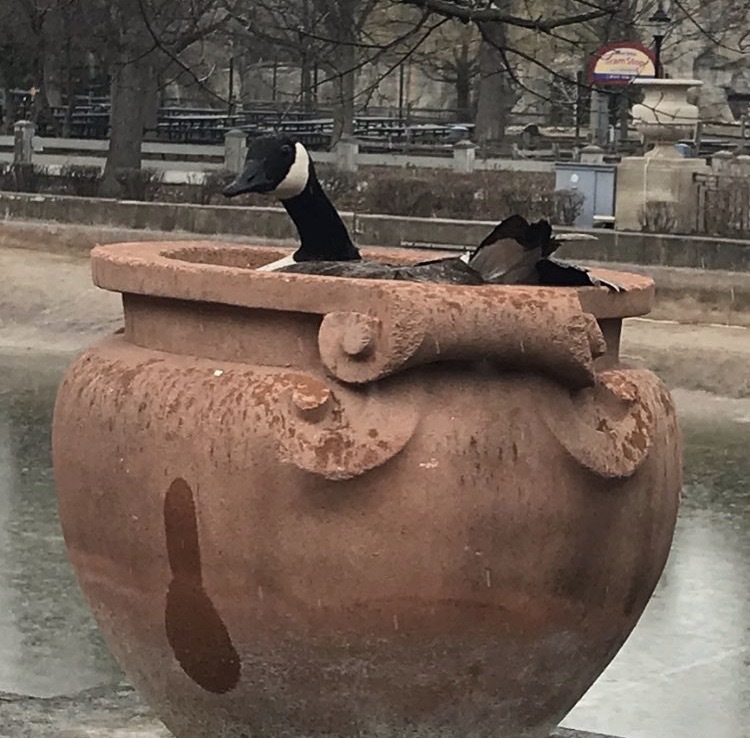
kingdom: Animalia
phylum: Chordata
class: Aves
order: Anseriformes
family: Anatidae
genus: Branta
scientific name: Branta canadensis
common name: Canada goose
